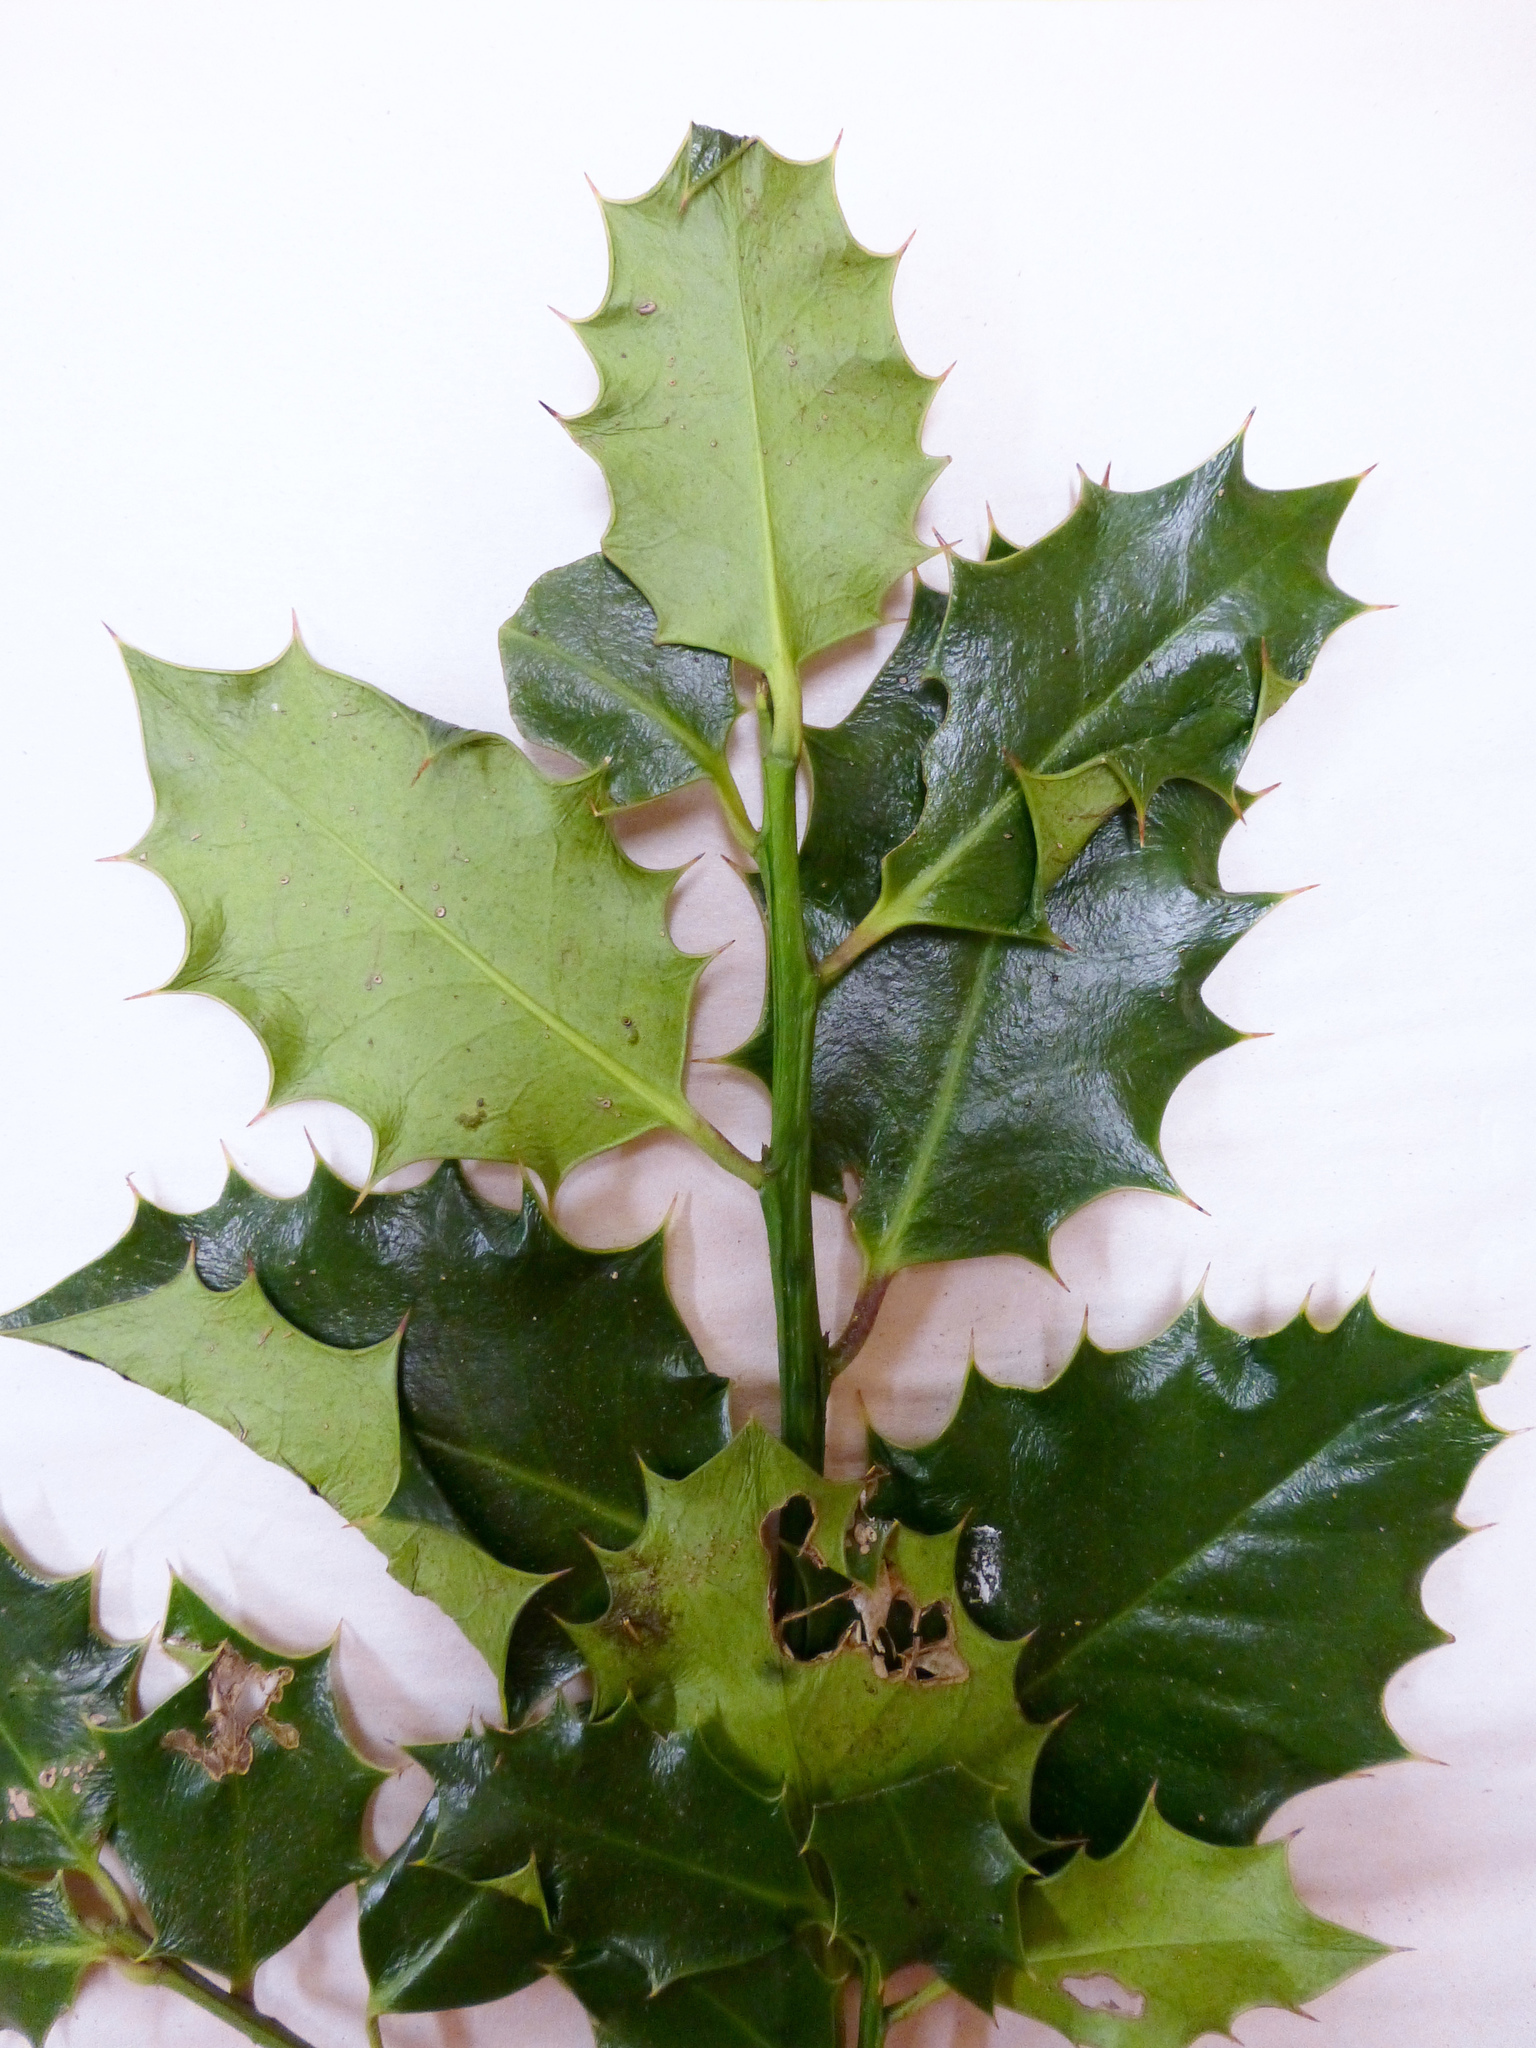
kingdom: Plantae
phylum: Tracheophyta
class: Magnoliopsida
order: Aquifoliales
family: Aquifoliaceae
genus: Ilex
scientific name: Ilex aquifolium
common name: English holly
